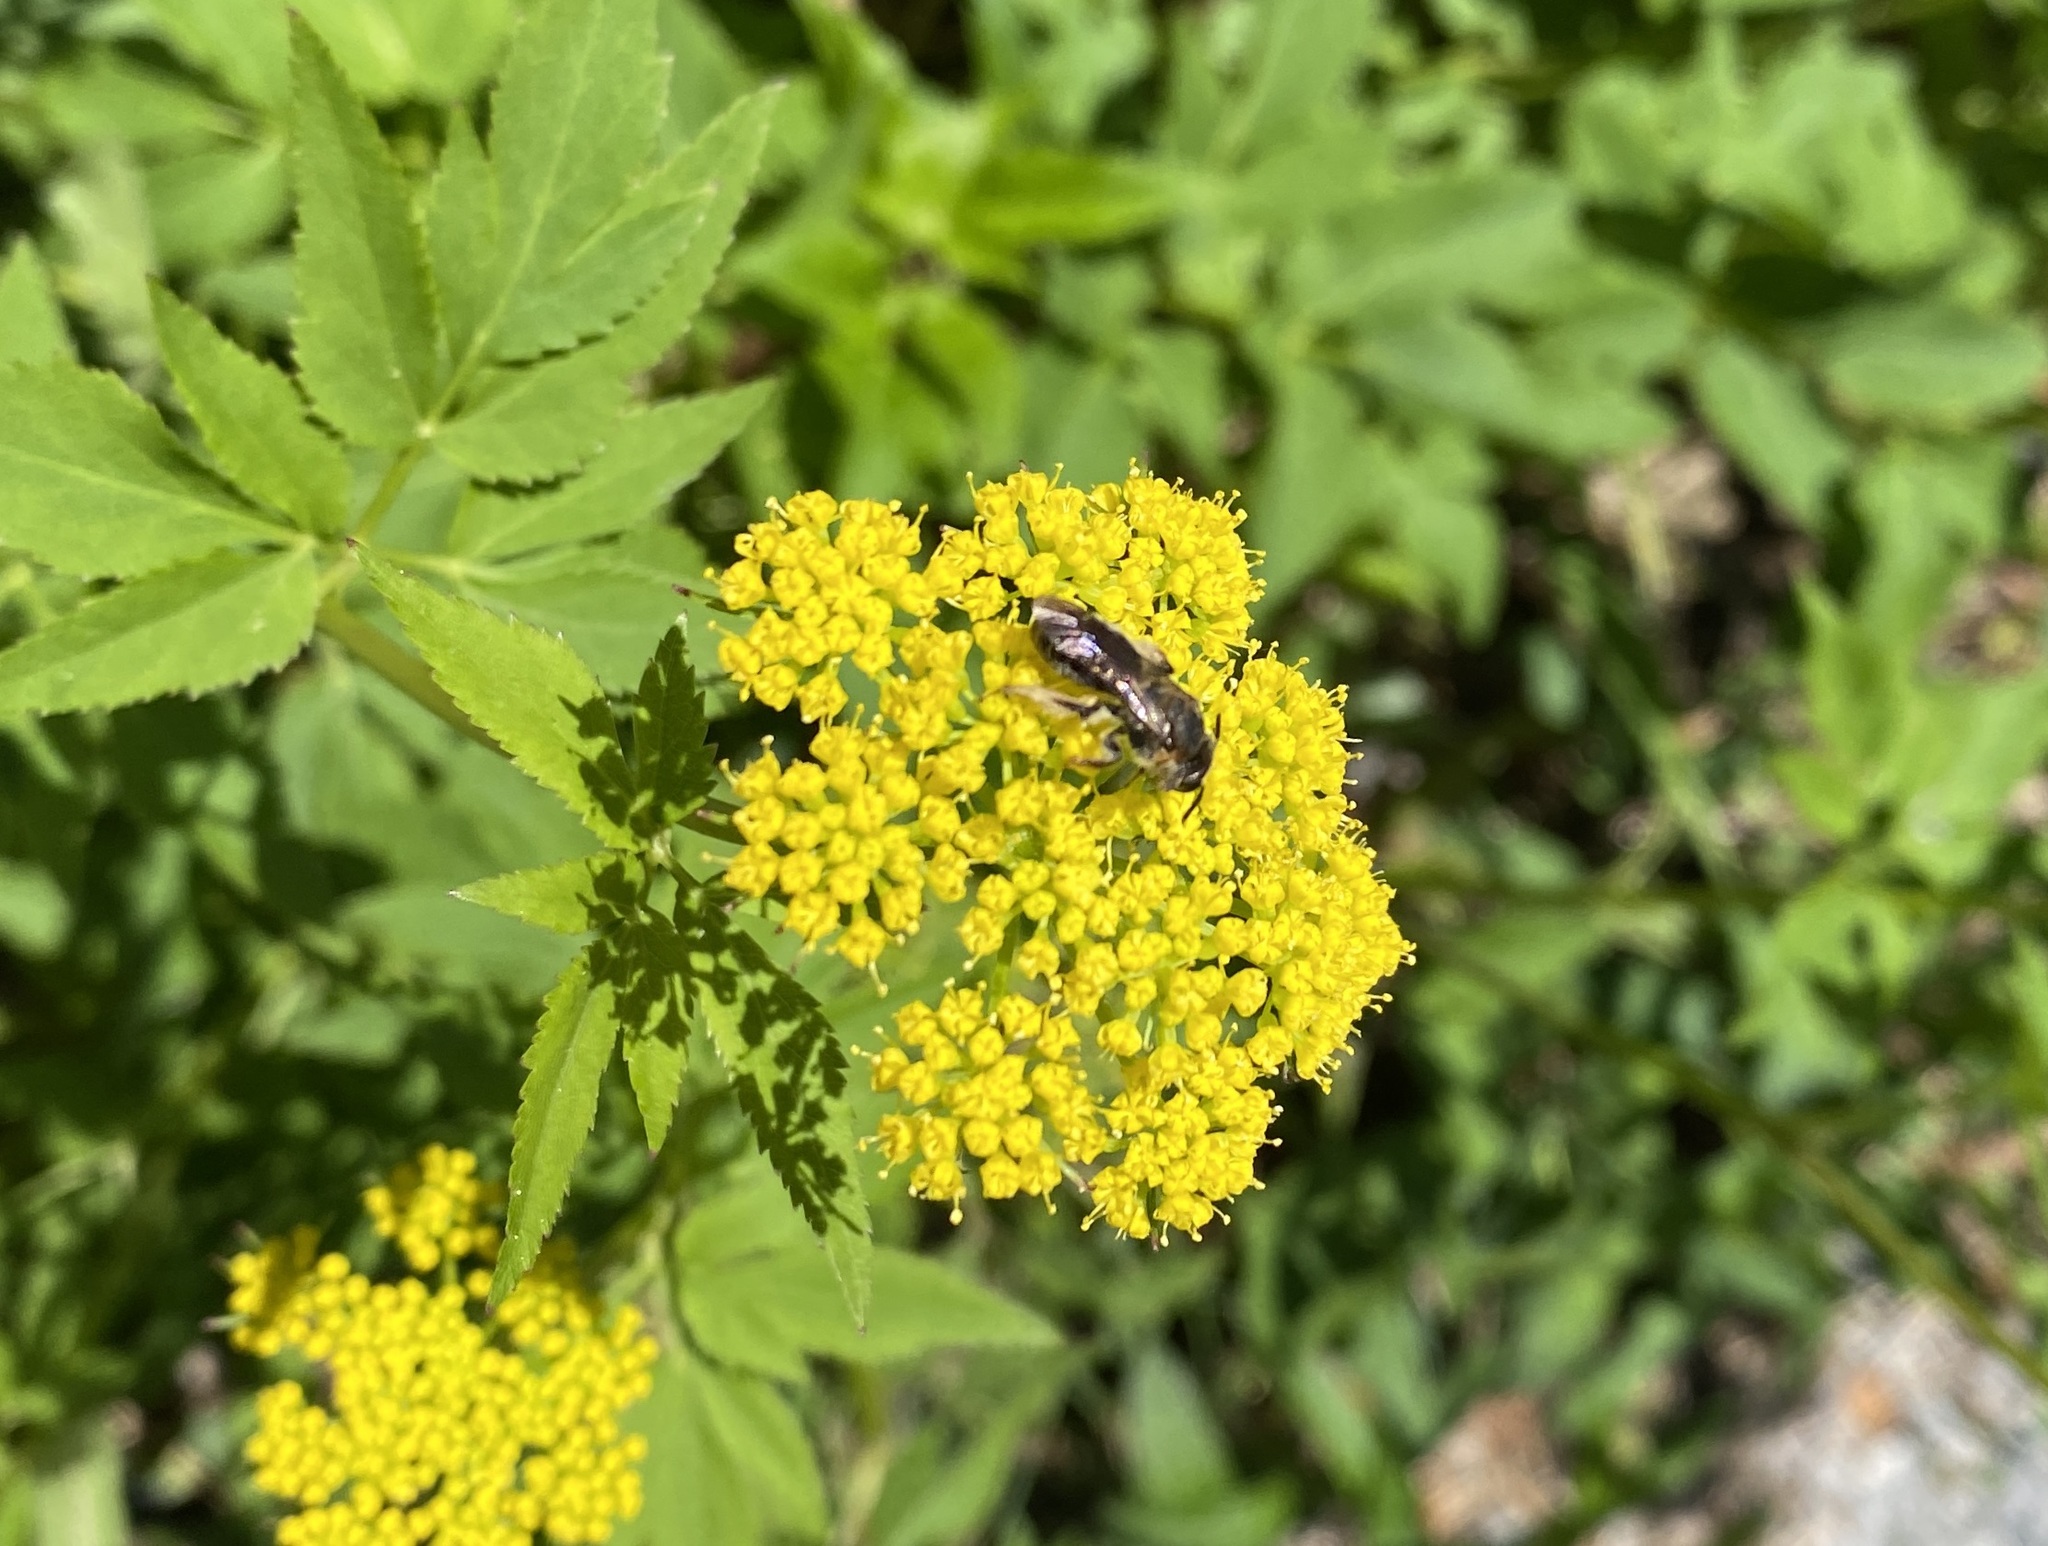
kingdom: Animalia
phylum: Arthropoda
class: Insecta
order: Hymenoptera
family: Andrenidae
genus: Andrena
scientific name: Andrena alleghaniensis
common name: Allegheny mining bee
